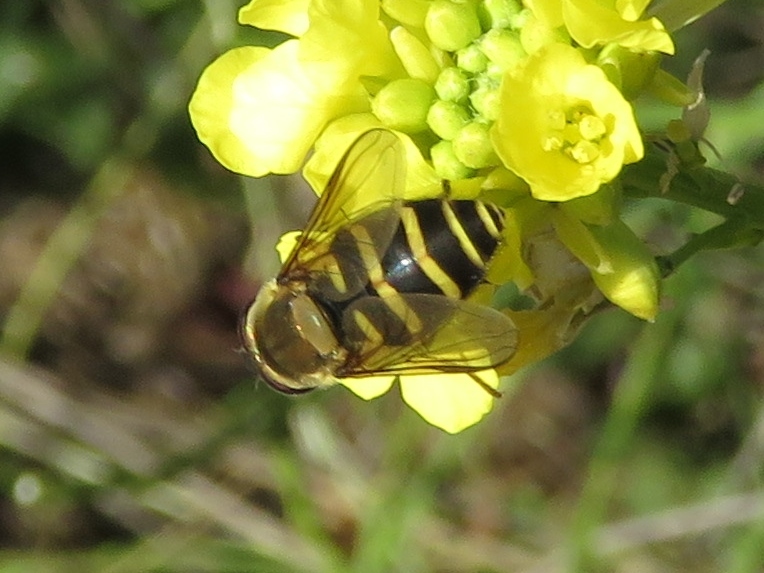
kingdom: Animalia
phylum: Arthropoda
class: Insecta
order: Diptera
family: Syrphidae
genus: Syrphus
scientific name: Syrphus opinator
